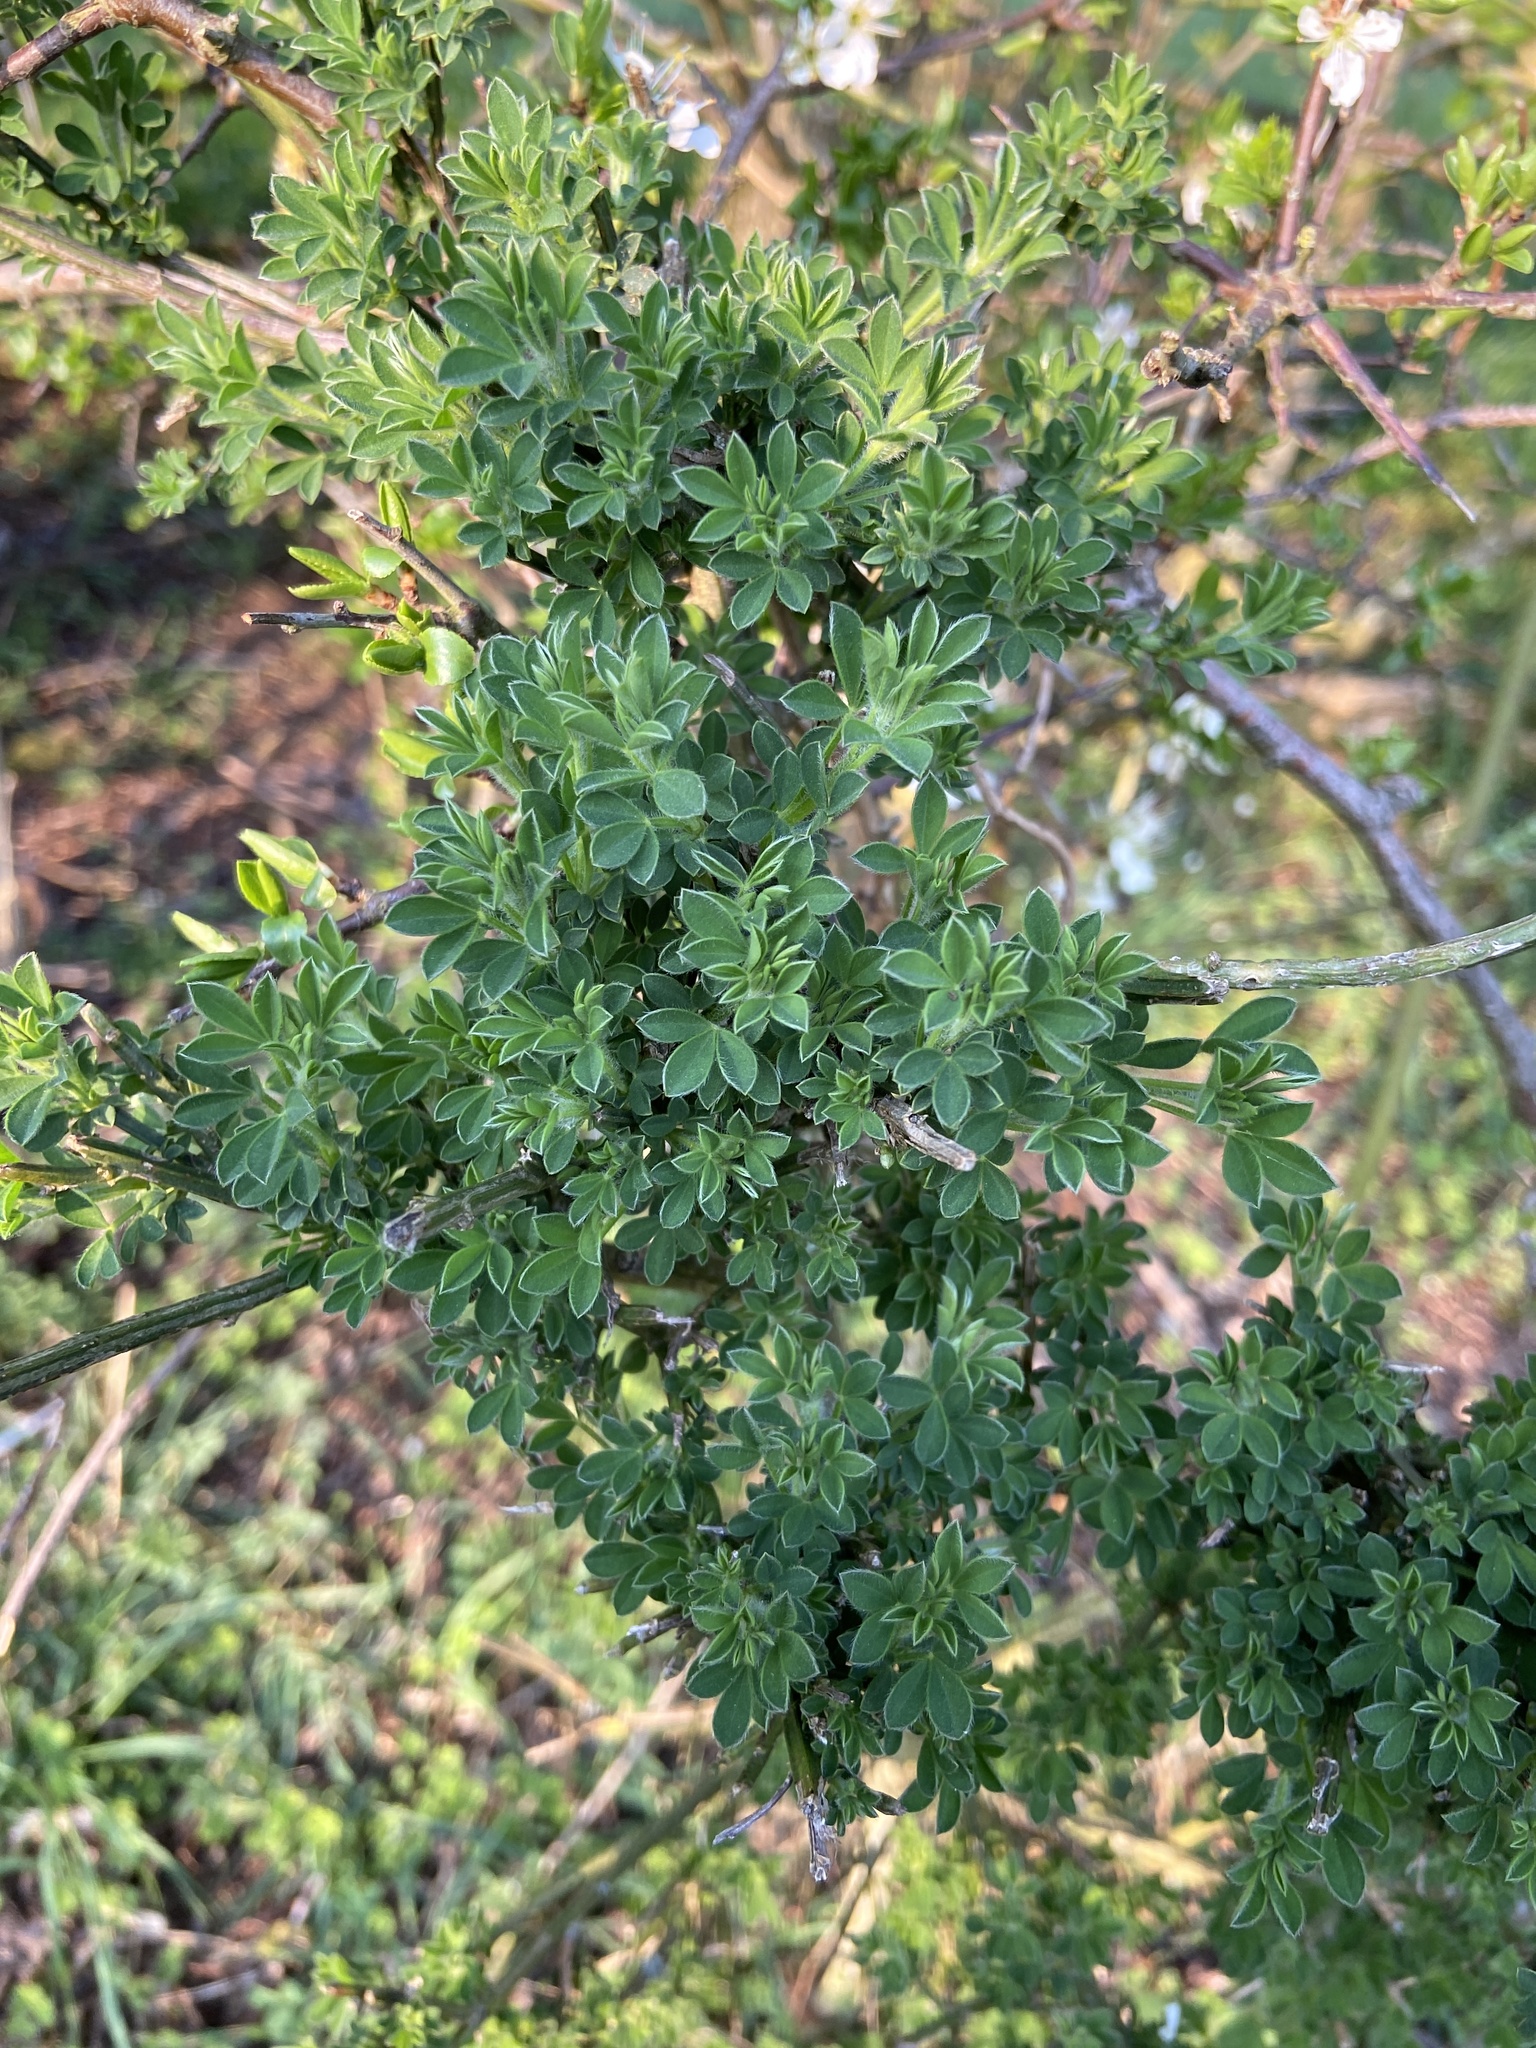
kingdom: Plantae
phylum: Tracheophyta
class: Magnoliopsida
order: Fabales
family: Fabaceae
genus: Cytisus
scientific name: Cytisus scoparius
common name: Scotch broom
